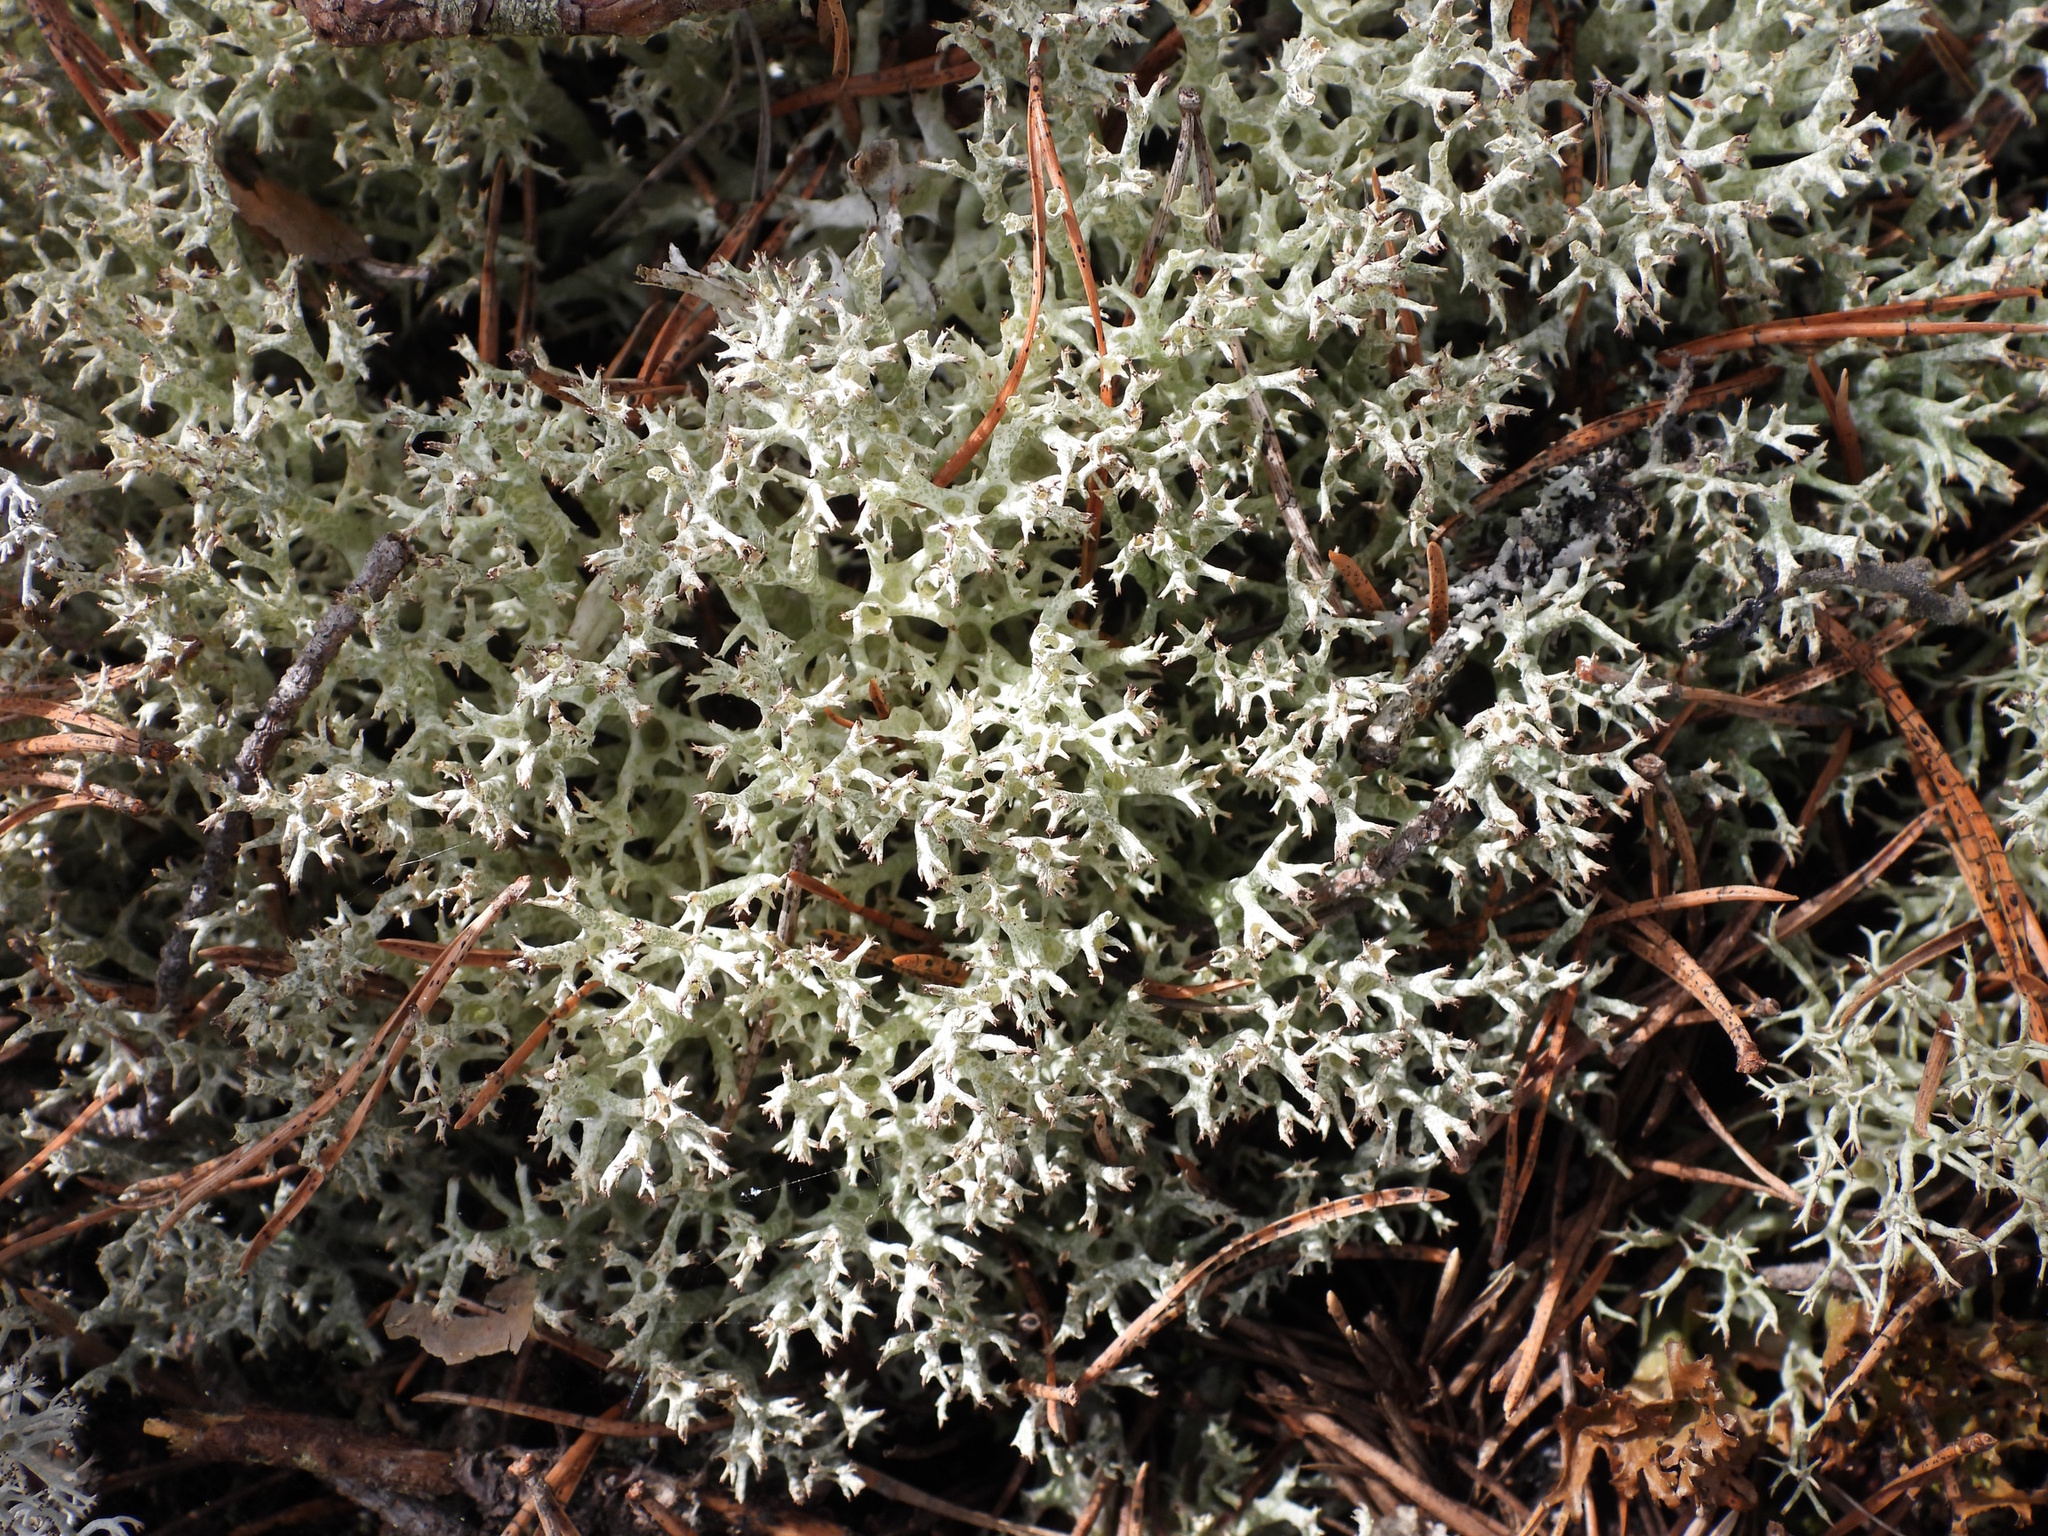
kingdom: Fungi
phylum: Ascomycota
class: Lecanoromycetes
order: Lecanorales
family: Cladoniaceae
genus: Cladonia
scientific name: Cladonia uncialis
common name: Thorn lichen
